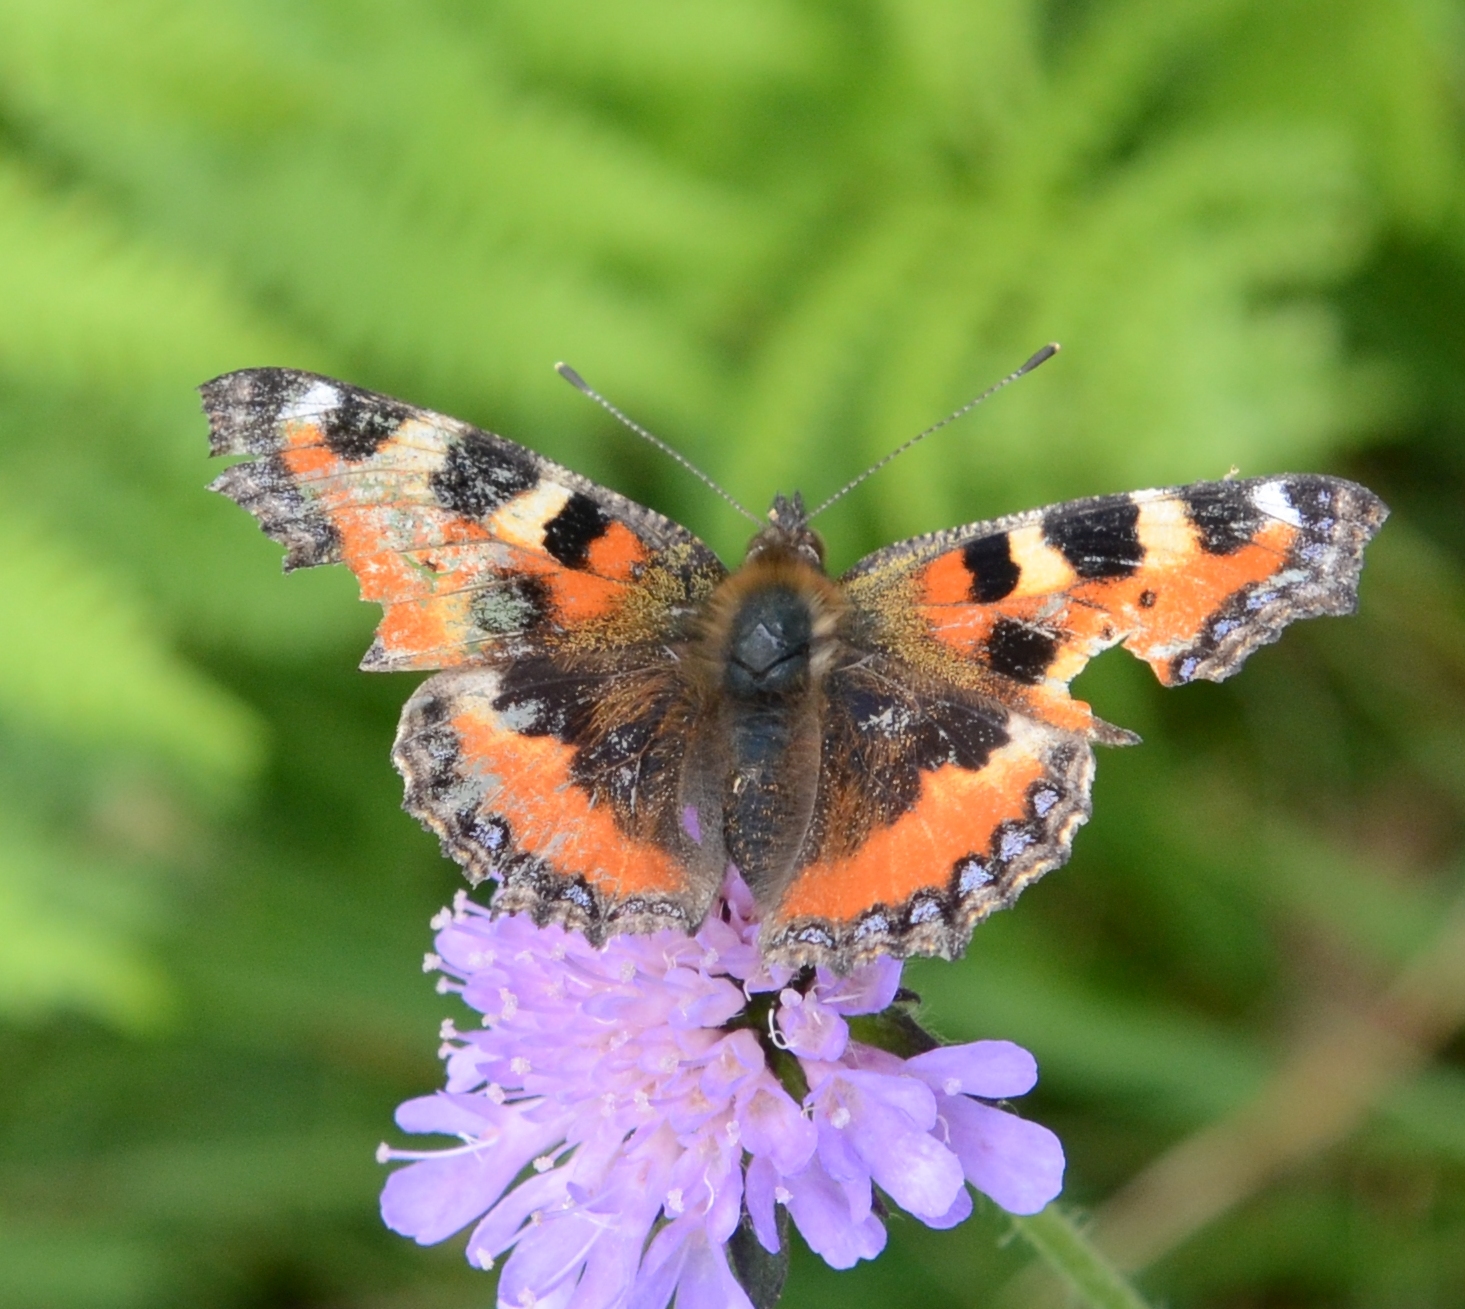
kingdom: Animalia
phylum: Arthropoda
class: Insecta
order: Lepidoptera
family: Nymphalidae
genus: Aglais
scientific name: Aglais urticae
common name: Small tortoiseshell
